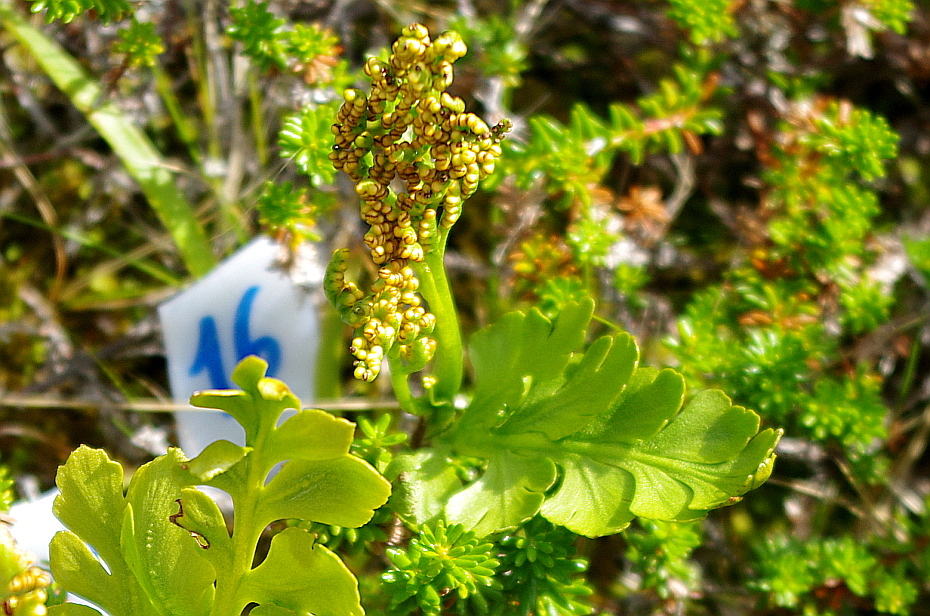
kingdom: Plantae
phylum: Tracheophyta
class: Polypodiopsida
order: Ophioglossales
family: Ophioglossaceae
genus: Botrychium
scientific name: Botrychium boreale
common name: Boreal moonwort
